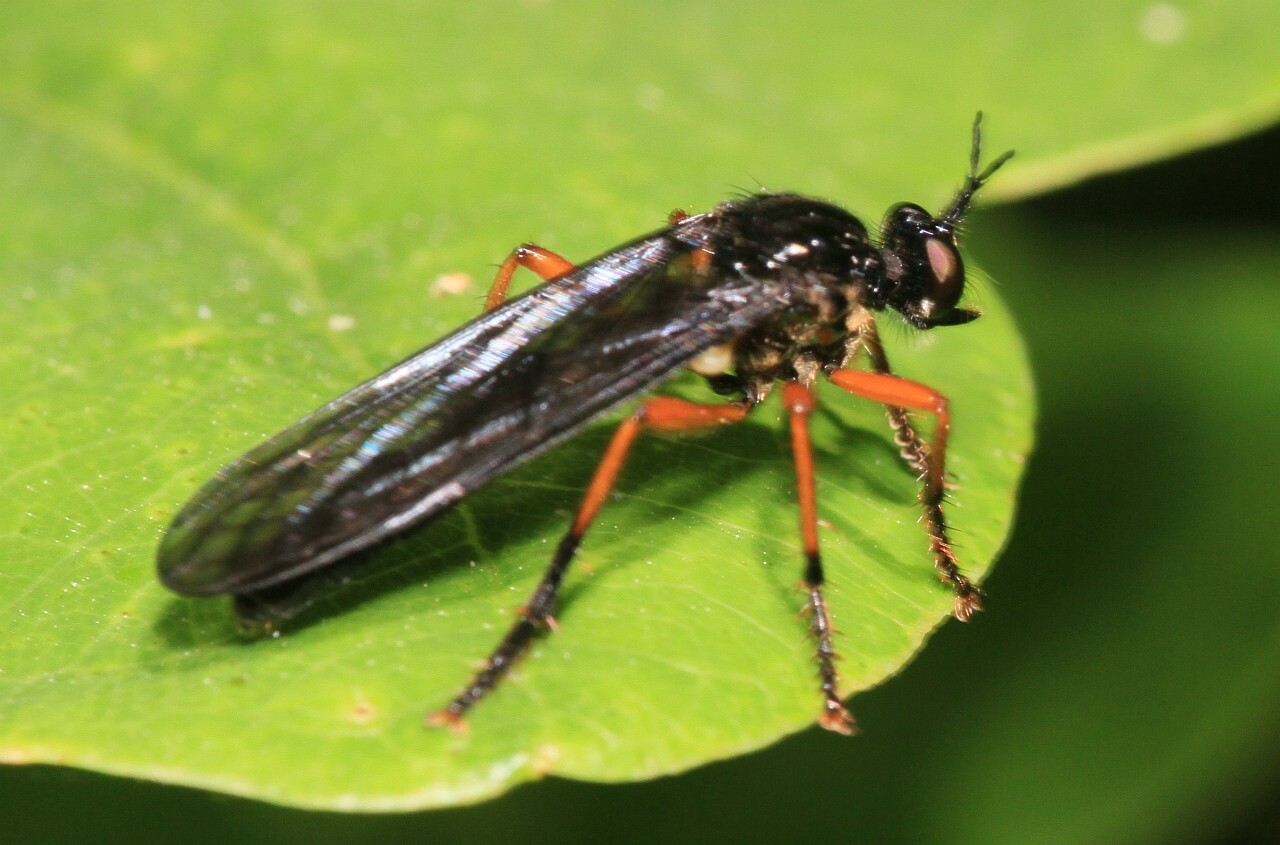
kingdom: Animalia
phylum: Arthropoda
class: Insecta
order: Diptera
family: Asilidae
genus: Dioctria
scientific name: Dioctria oelandica
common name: Orange-legged robberfly
